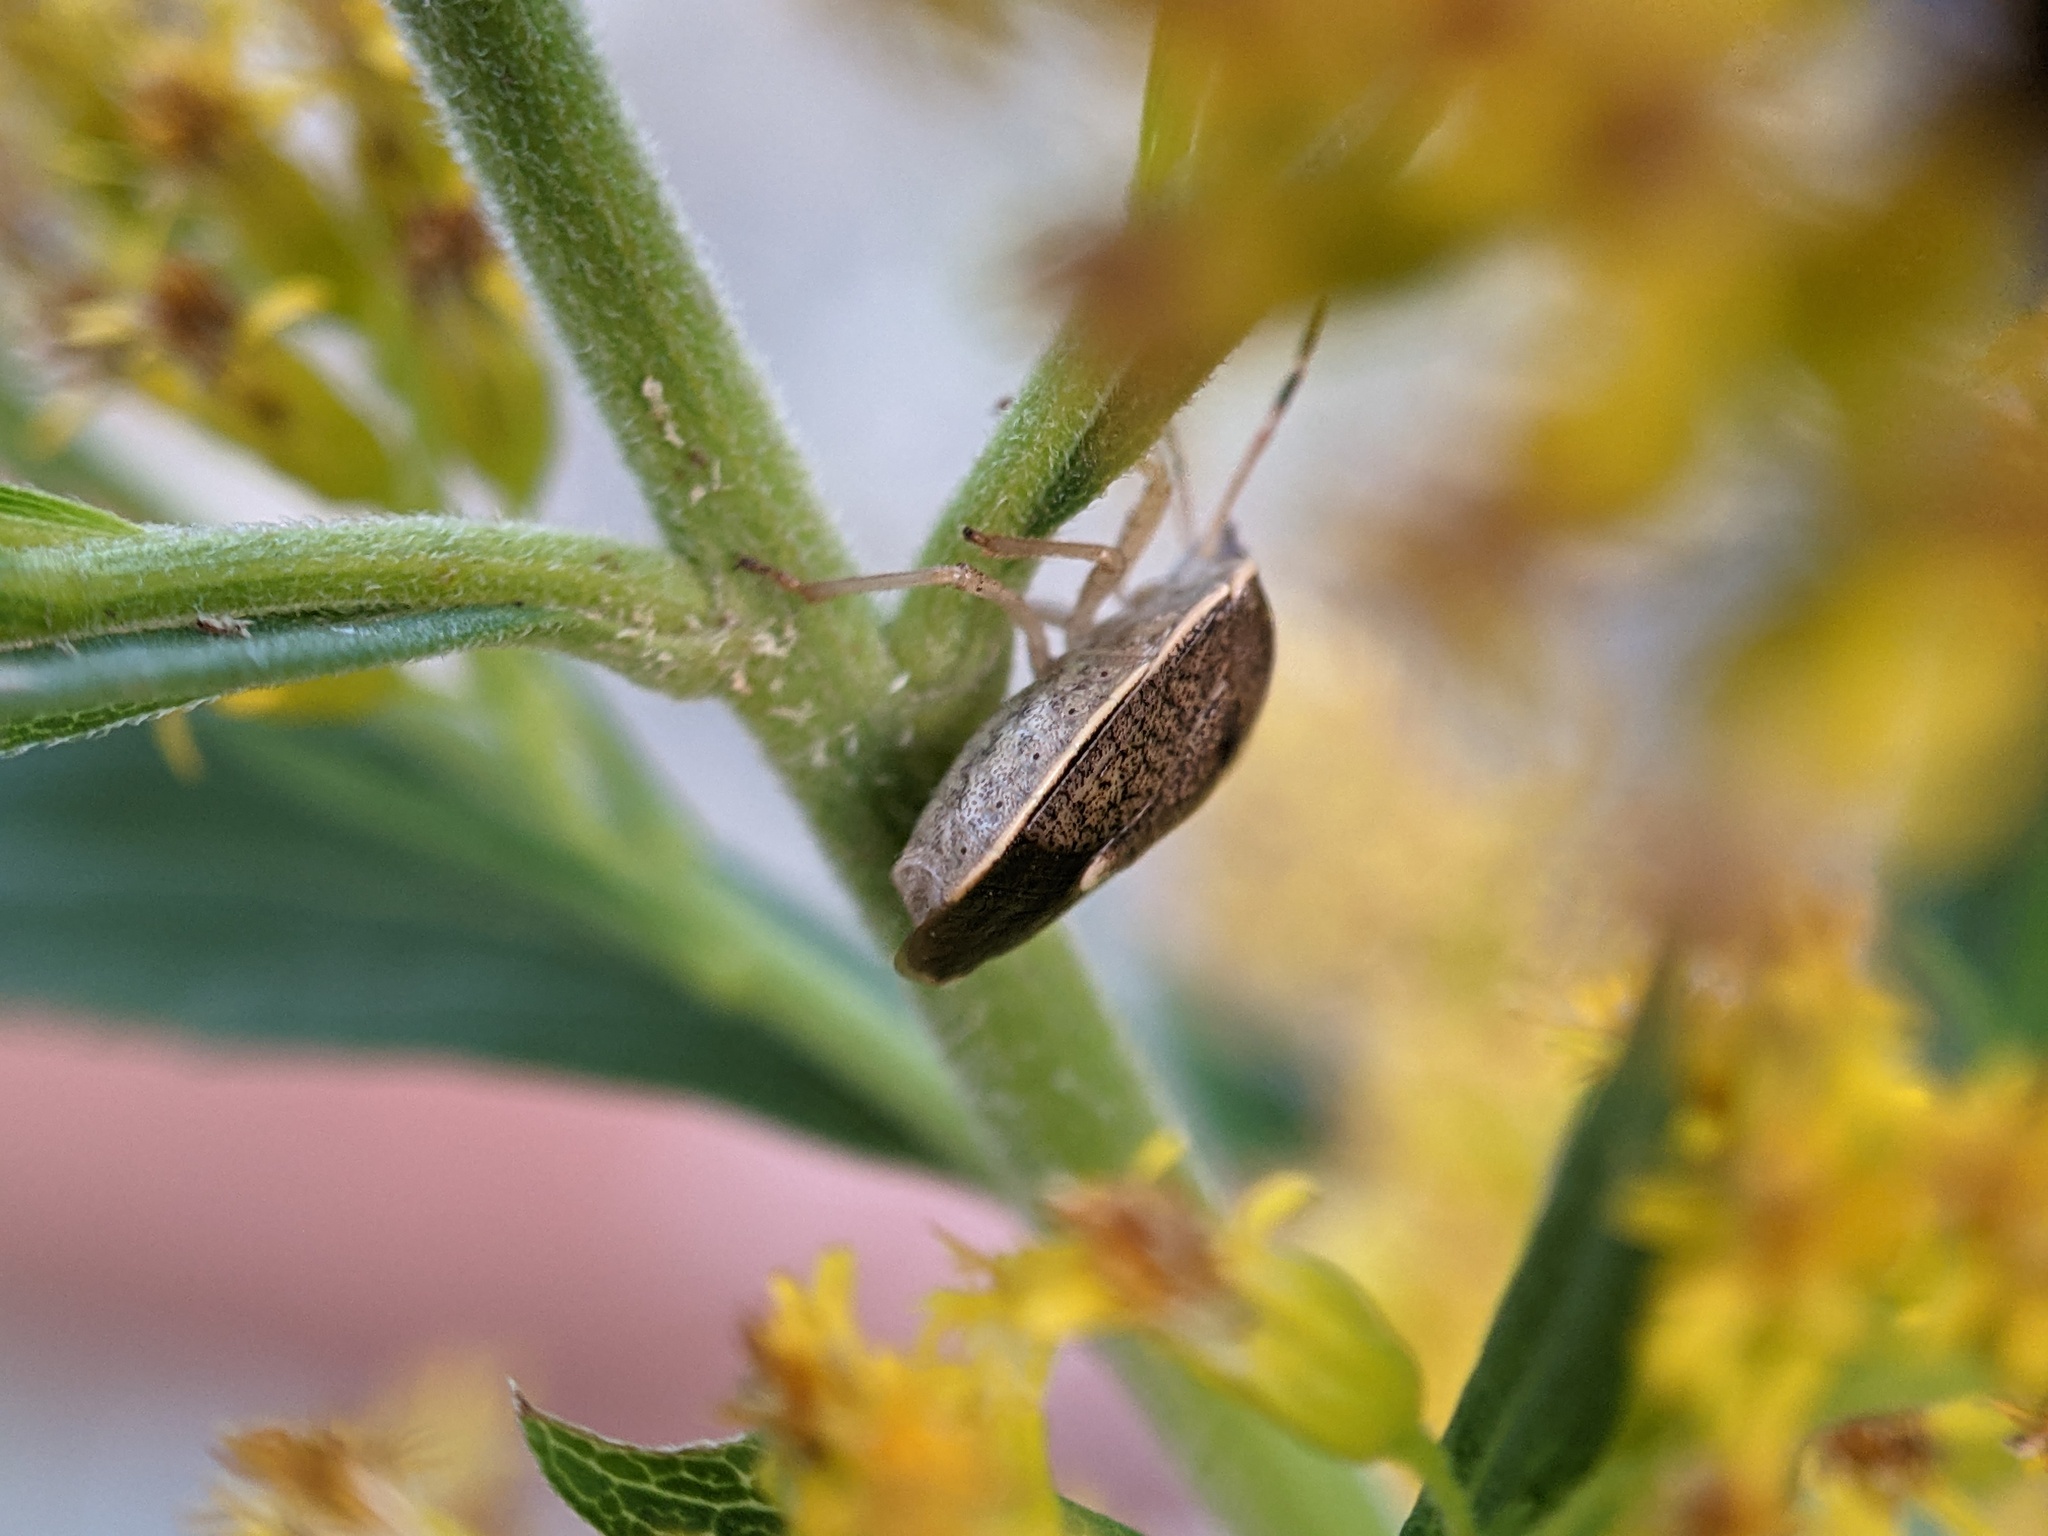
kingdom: Animalia
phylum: Arthropoda
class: Insecta
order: Hemiptera
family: Pentatomidae
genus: Holcostethus
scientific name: Holcostethus limbolarius
